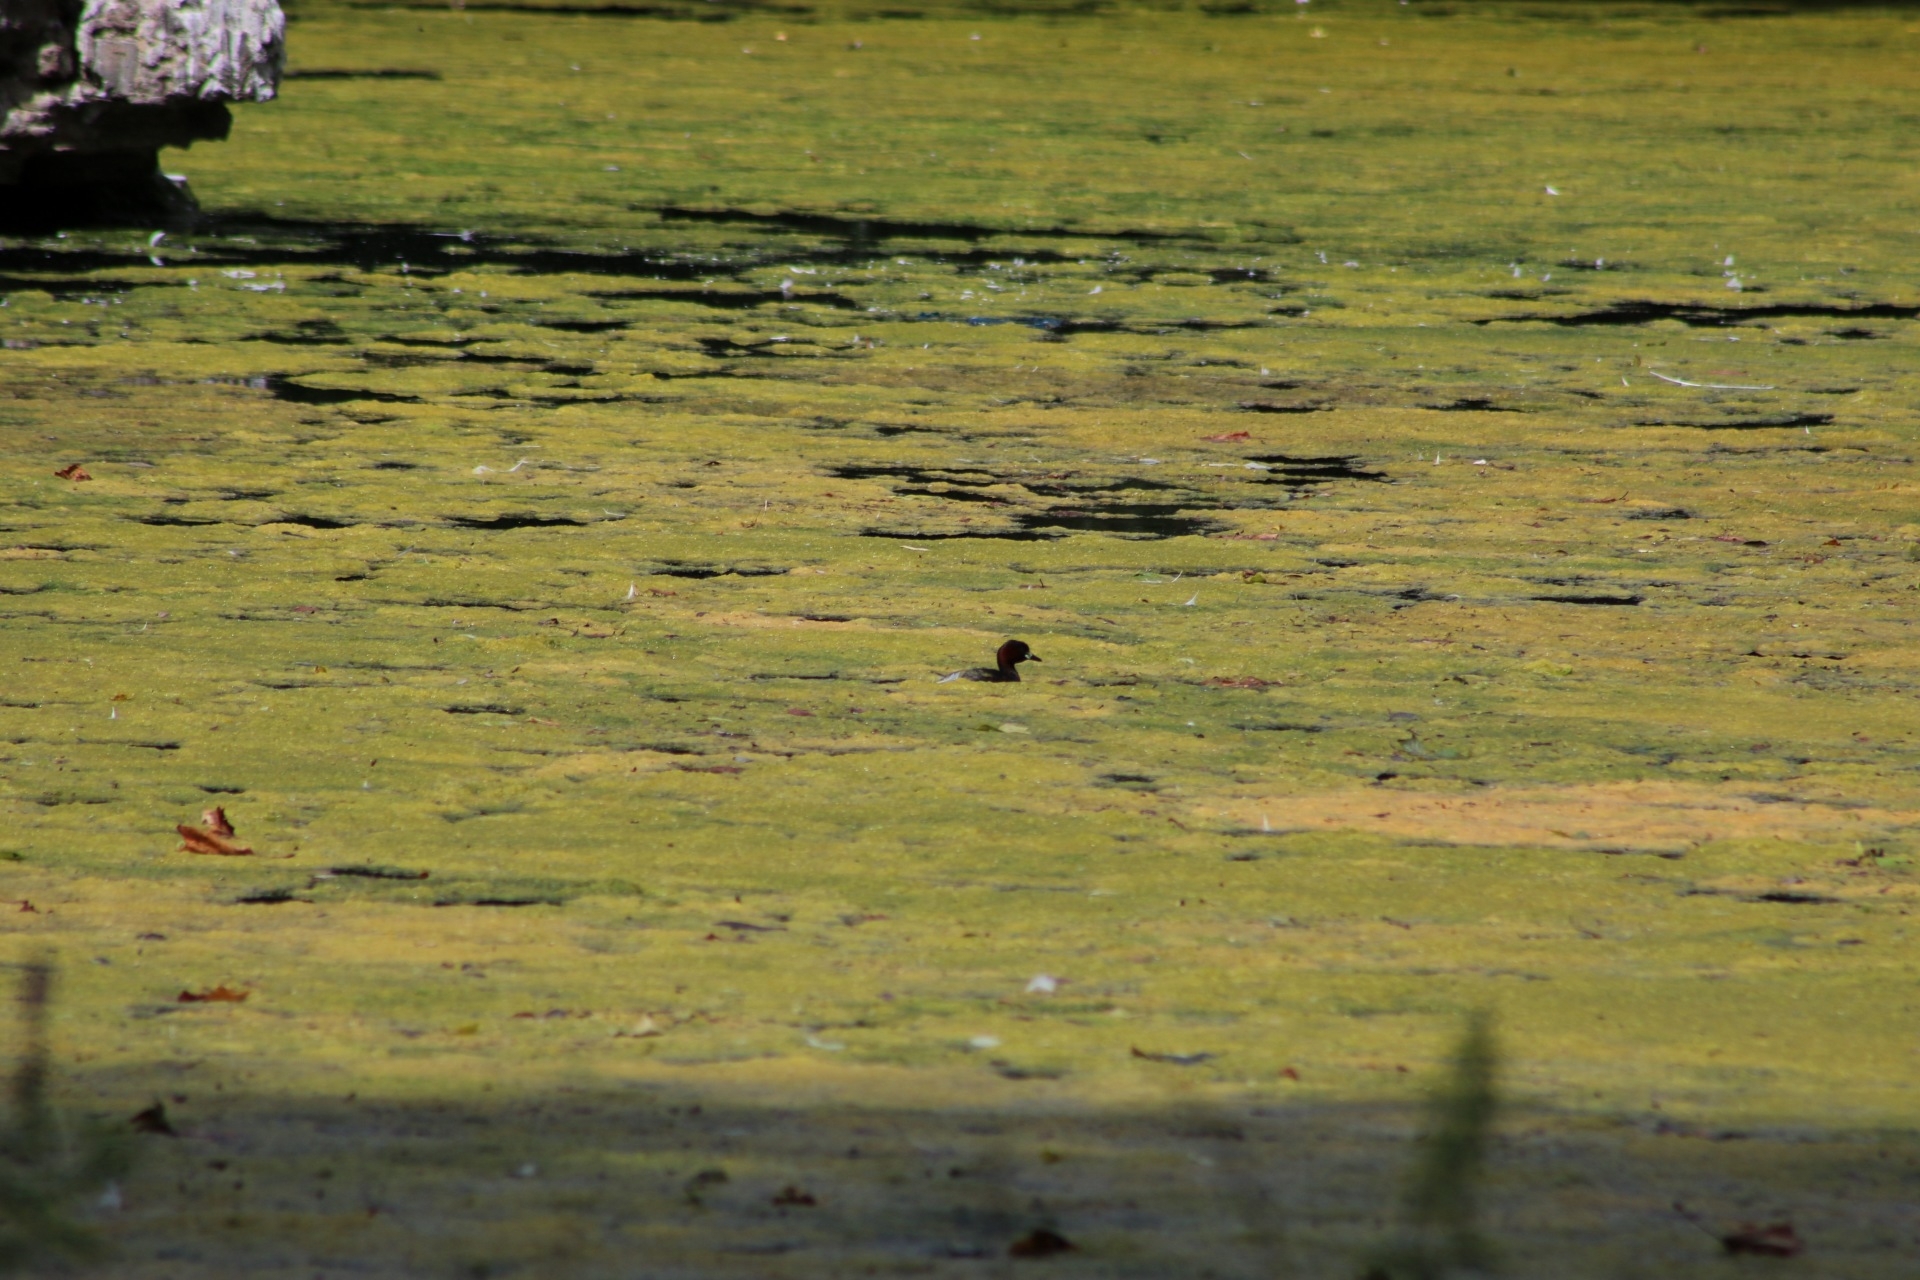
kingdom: Animalia
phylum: Chordata
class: Aves
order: Podicipediformes
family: Podicipedidae
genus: Tachybaptus
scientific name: Tachybaptus ruficollis
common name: Little grebe
